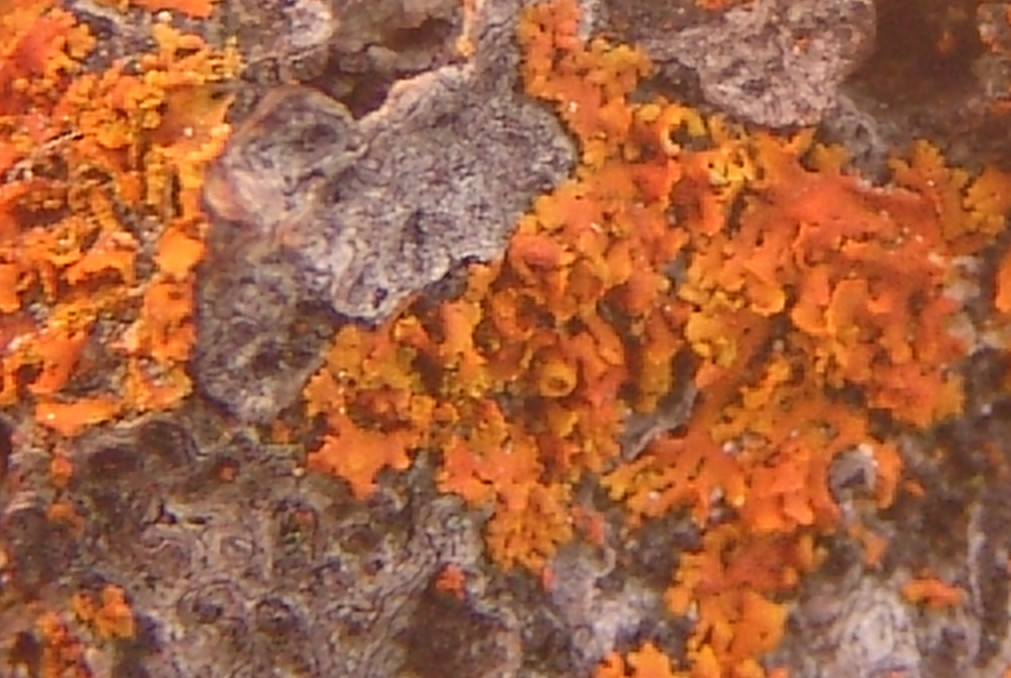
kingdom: Fungi
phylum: Ascomycota
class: Lecanoromycetes
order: Teloschistales
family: Teloschistaceae
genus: Oxneria
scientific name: Oxneria fallax
